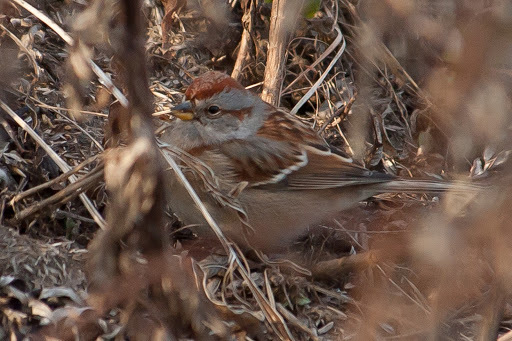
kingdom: Animalia
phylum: Chordata
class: Aves
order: Passeriformes
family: Passerellidae
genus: Spizelloides
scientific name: Spizelloides arborea
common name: American tree sparrow
